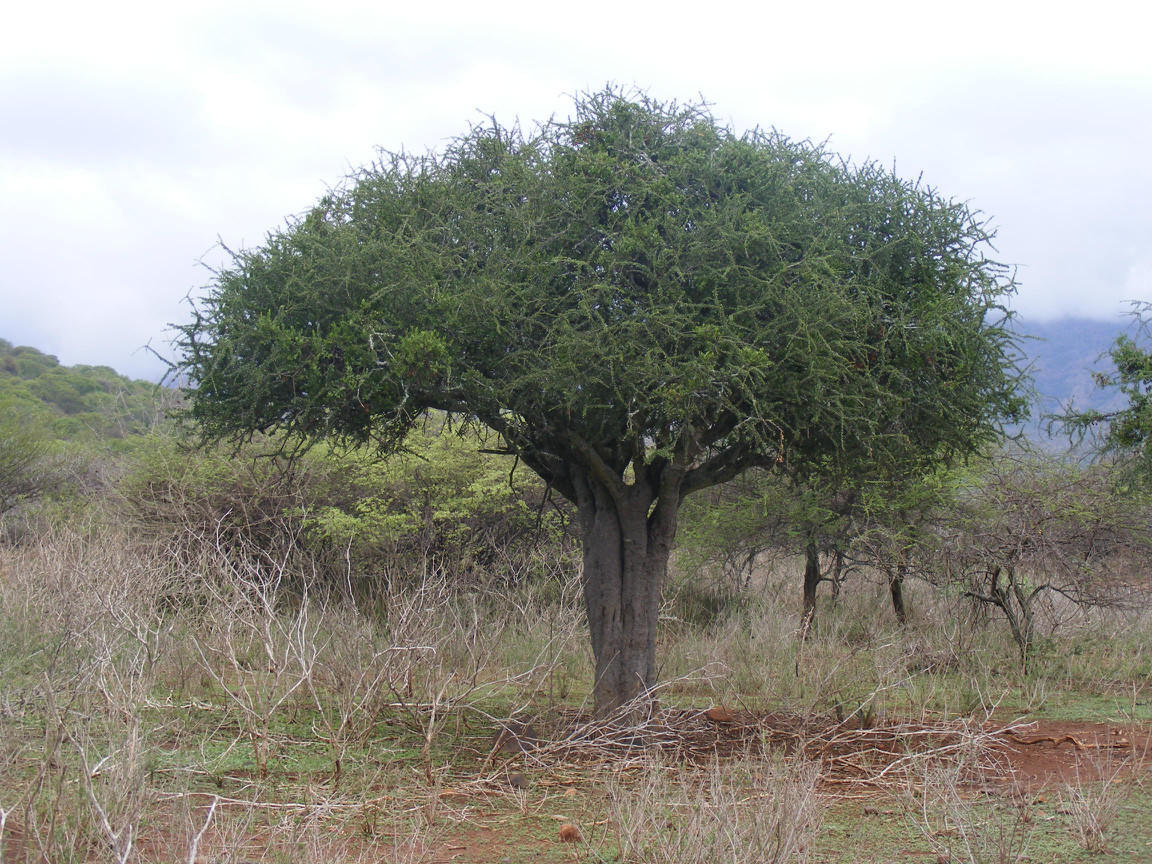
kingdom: Plantae
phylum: Tracheophyta
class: Magnoliopsida
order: Brassicales
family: Capparaceae
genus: Boscia
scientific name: Boscia albitrunca
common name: Caper bush
